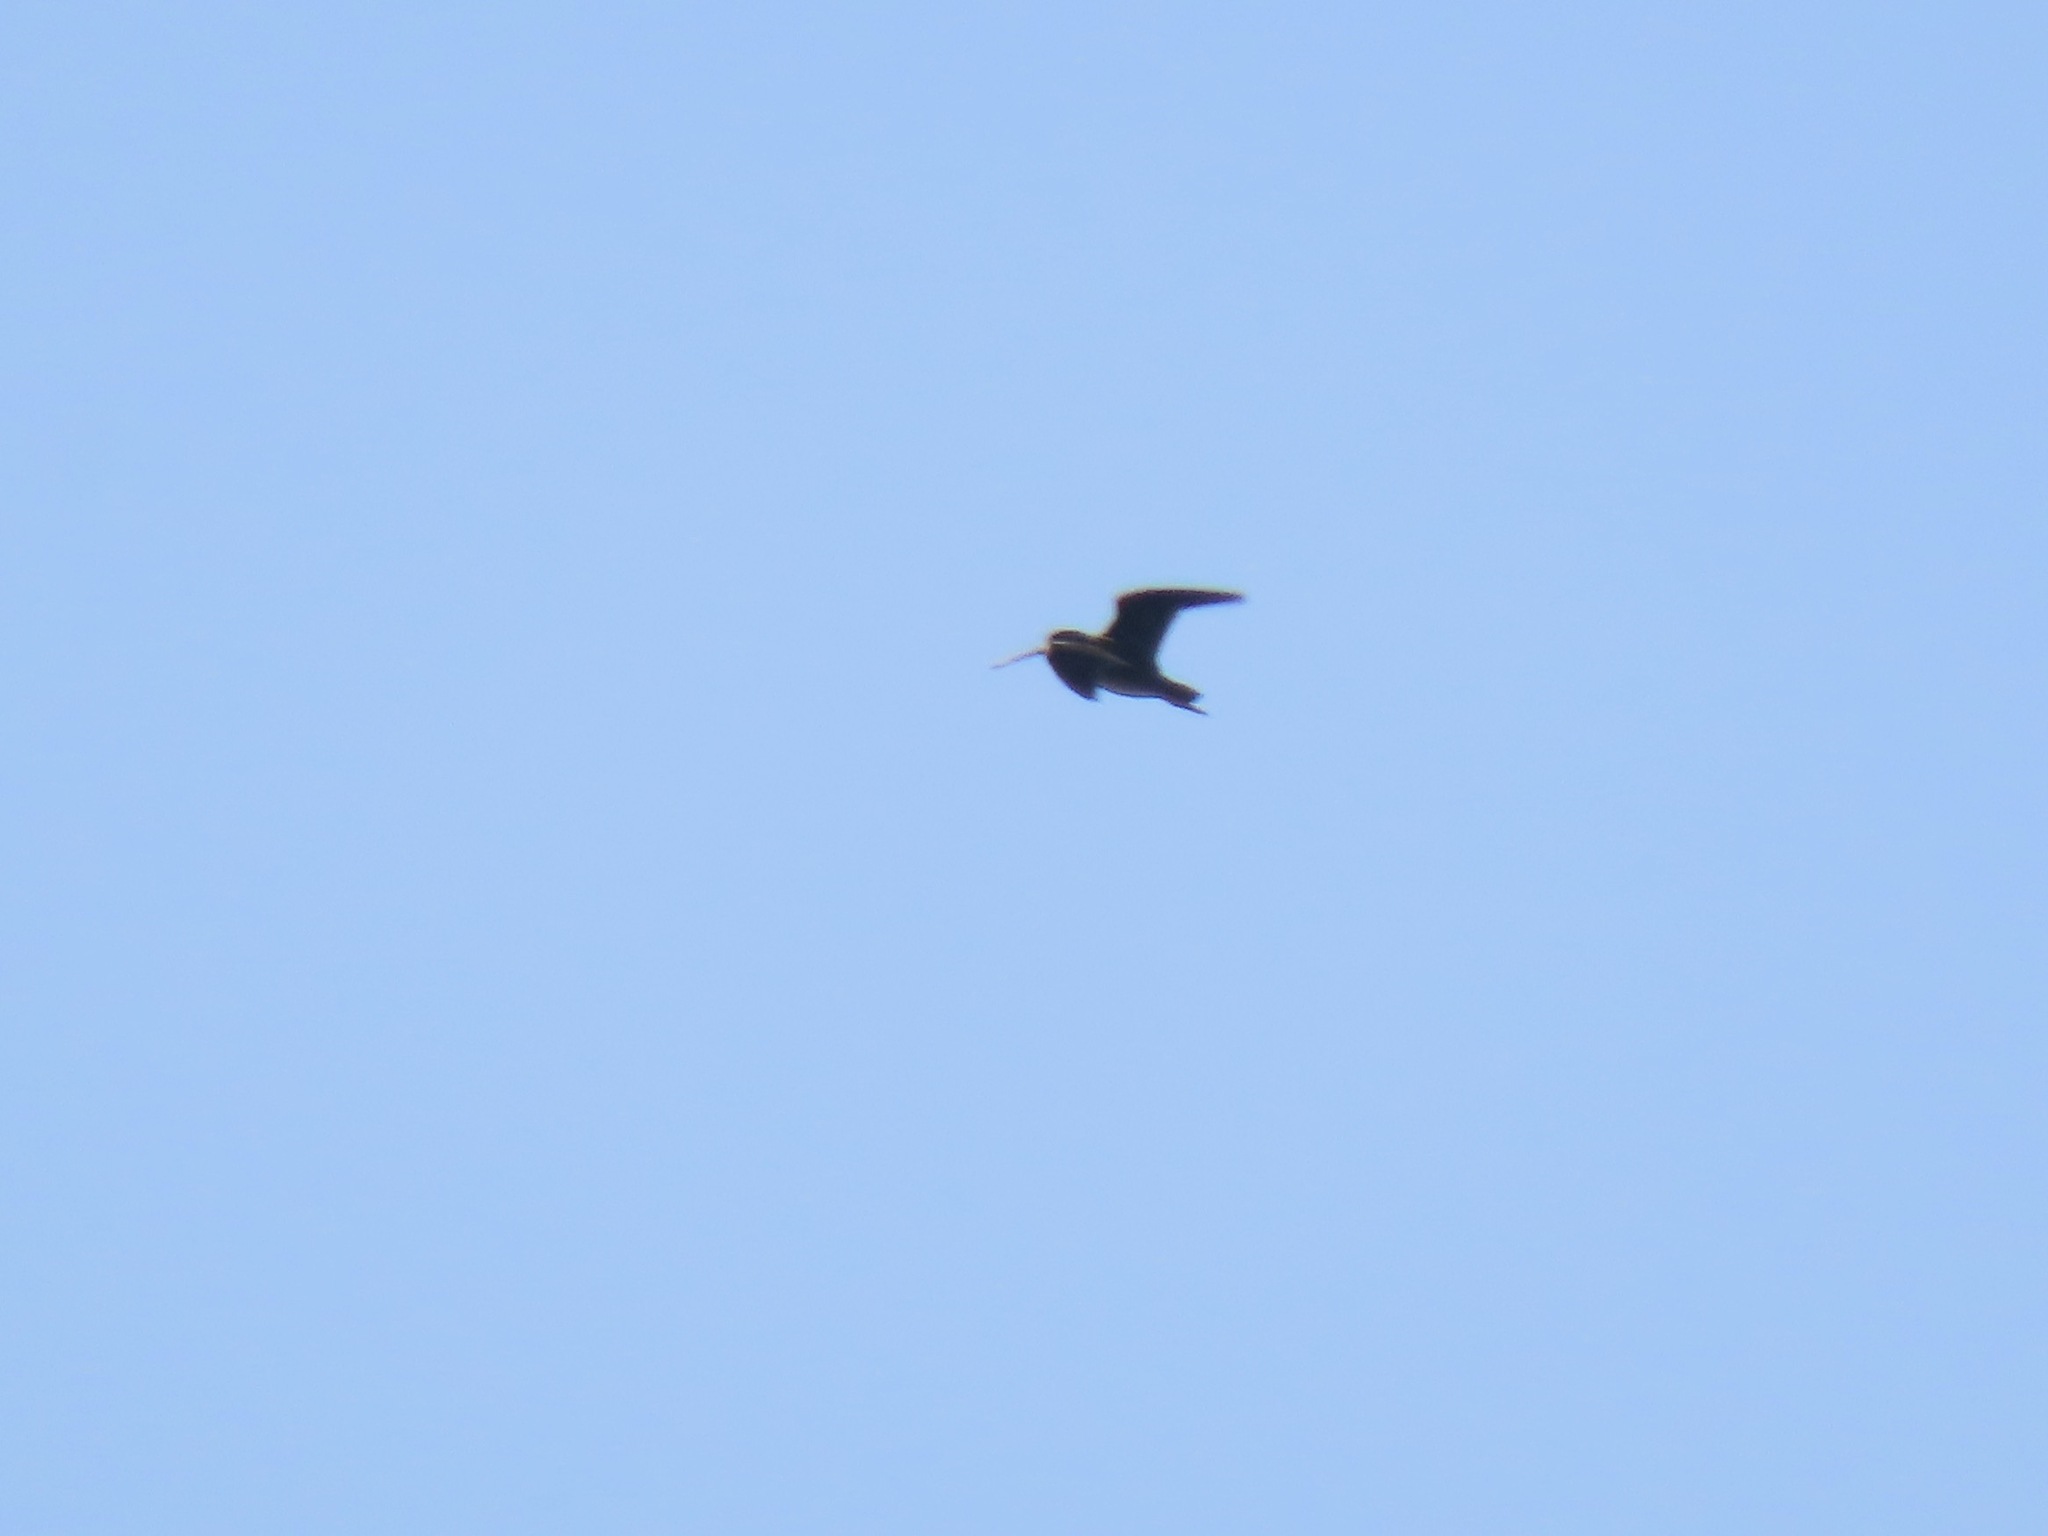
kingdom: Animalia
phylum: Chordata
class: Aves
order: Charadriiformes
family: Scolopacidae
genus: Gallinago
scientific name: Gallinago delicata
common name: Wilson's snipe
